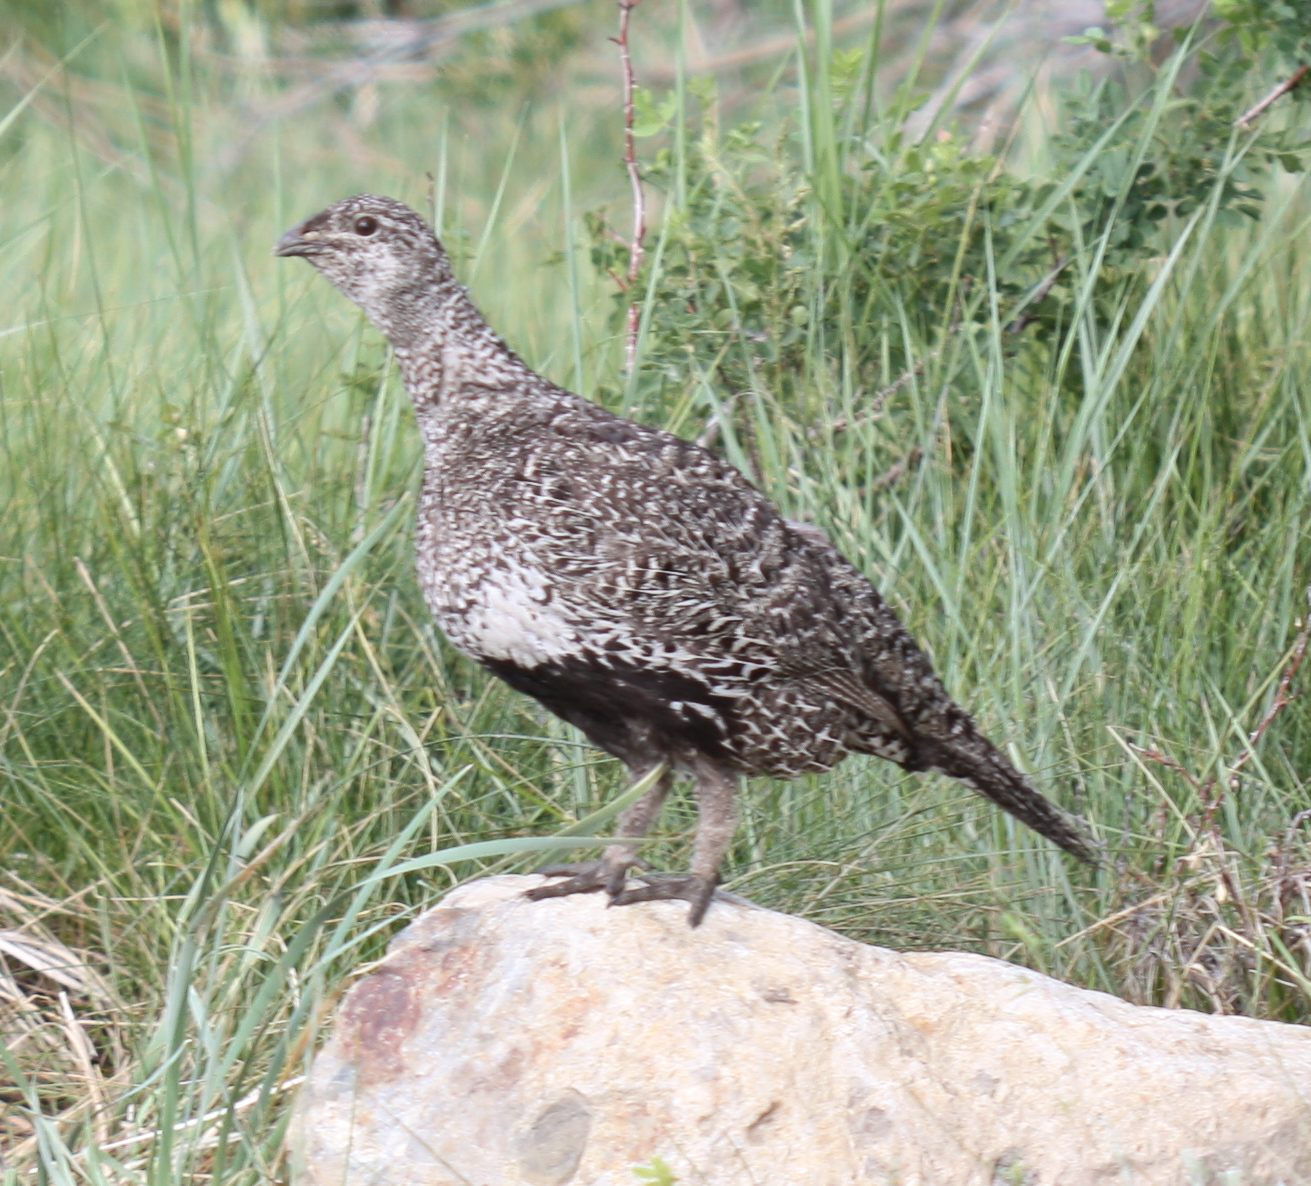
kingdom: Animalia
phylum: Chordata
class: Aves
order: Galliformes
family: Phasianidae
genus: Centrocercus
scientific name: Centrocercus urophasianus
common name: Sage grouse
